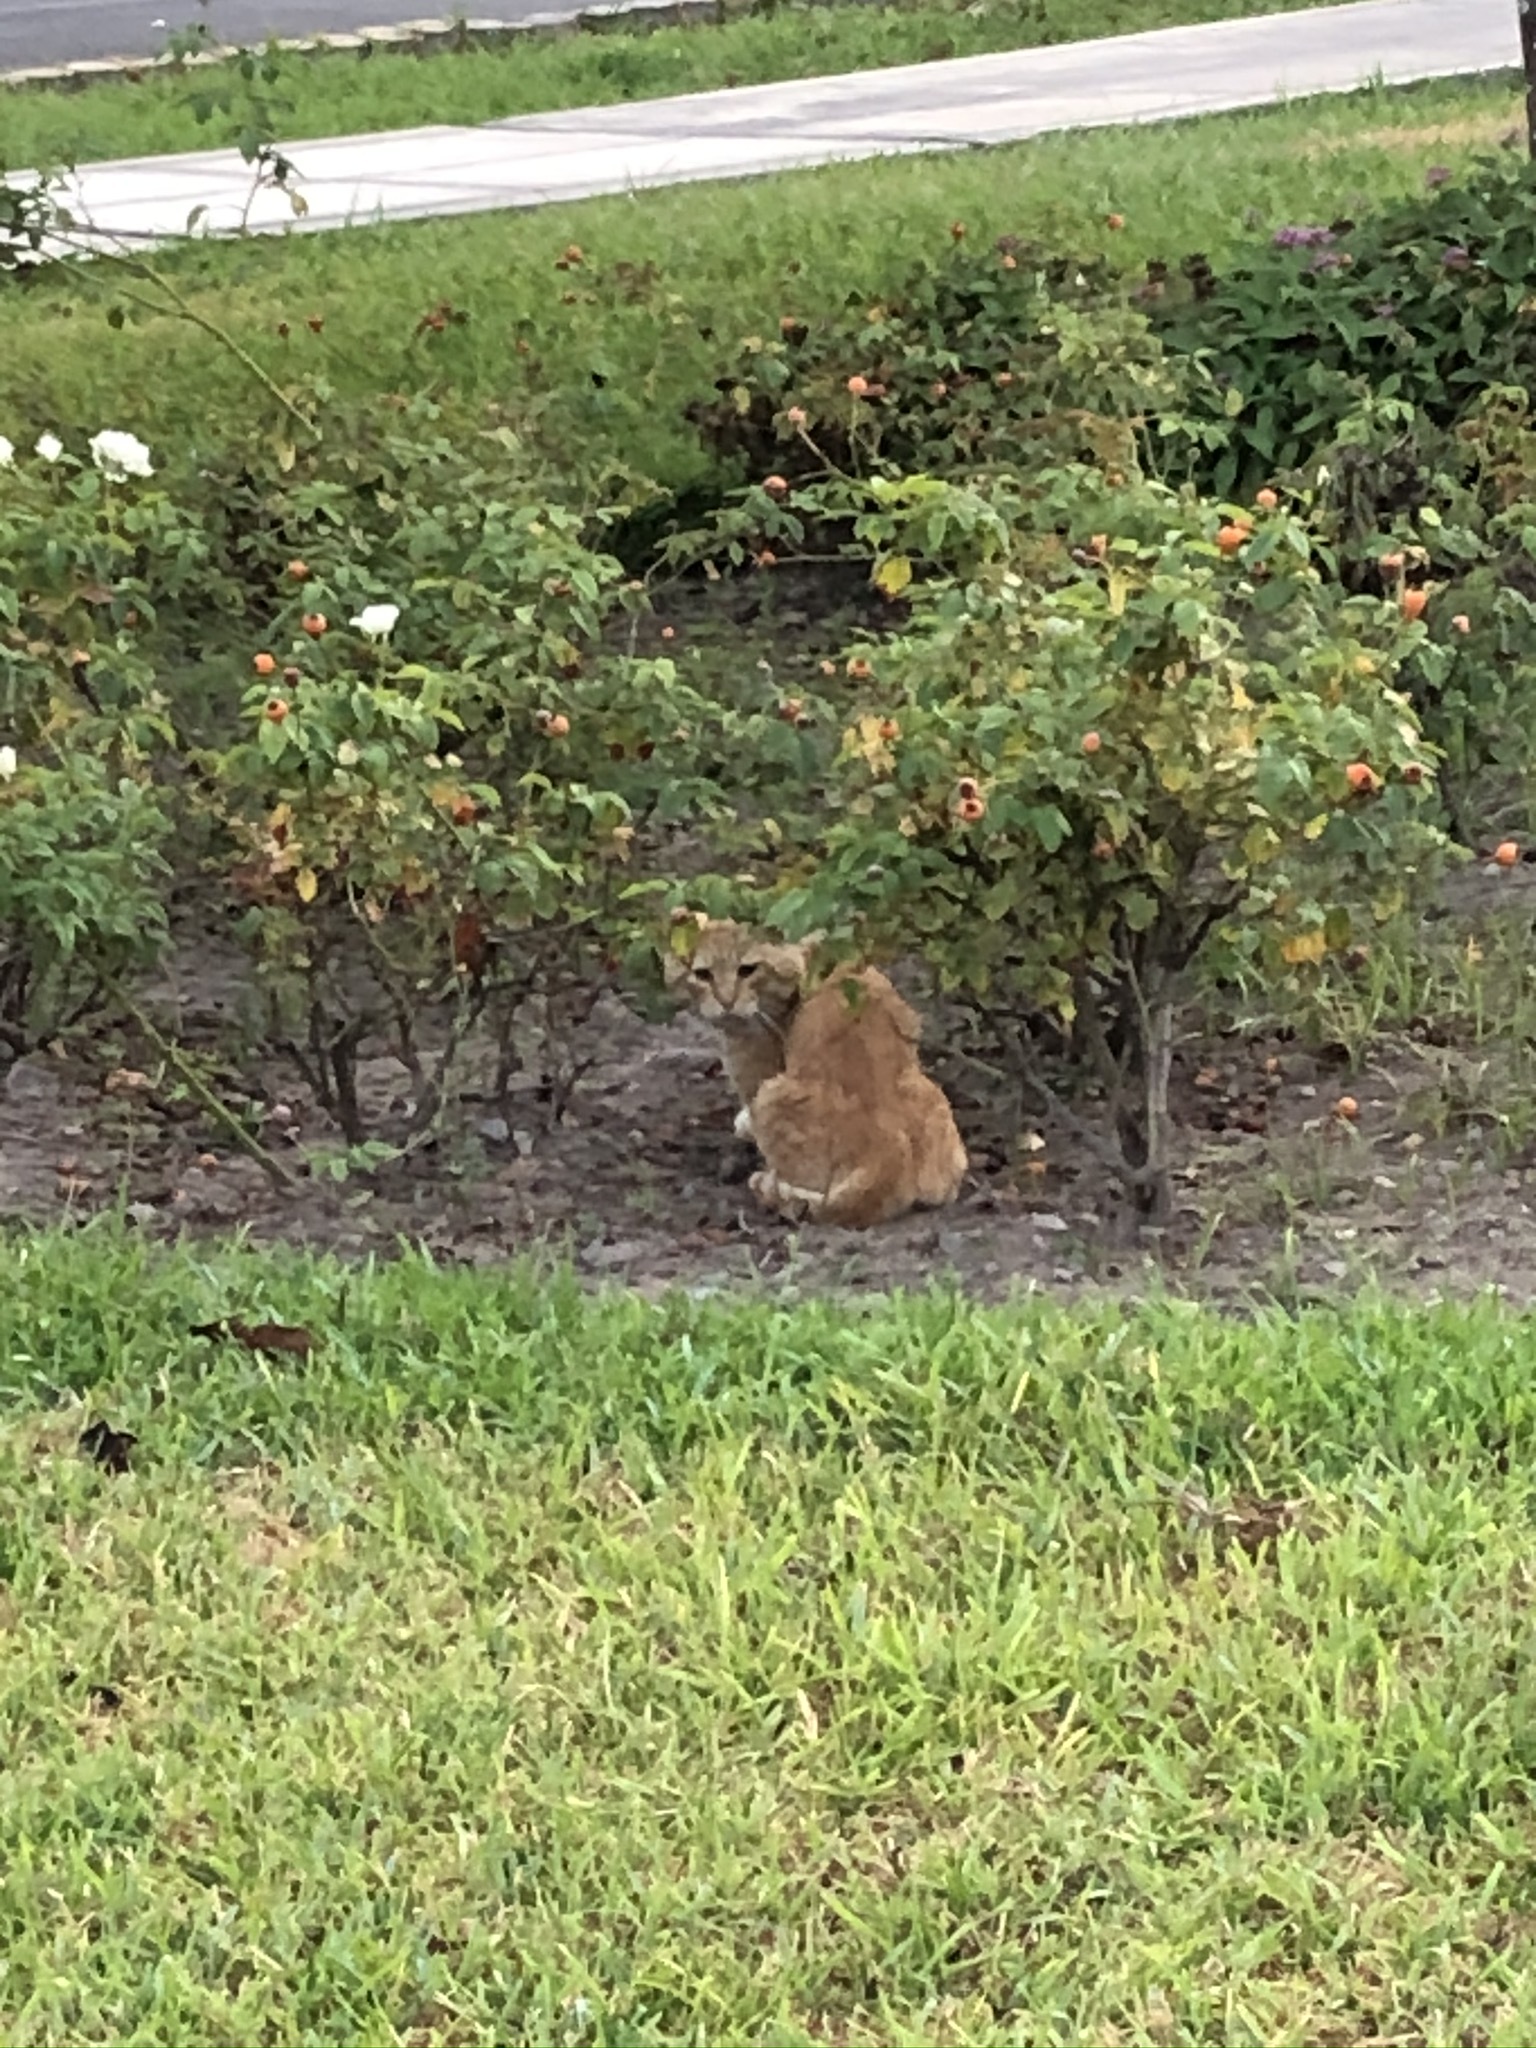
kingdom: Animalia
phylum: Chordata
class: Mammalia
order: Carnivora
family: Felidae
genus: Felis
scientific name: Felis catus
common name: Domestic cat
